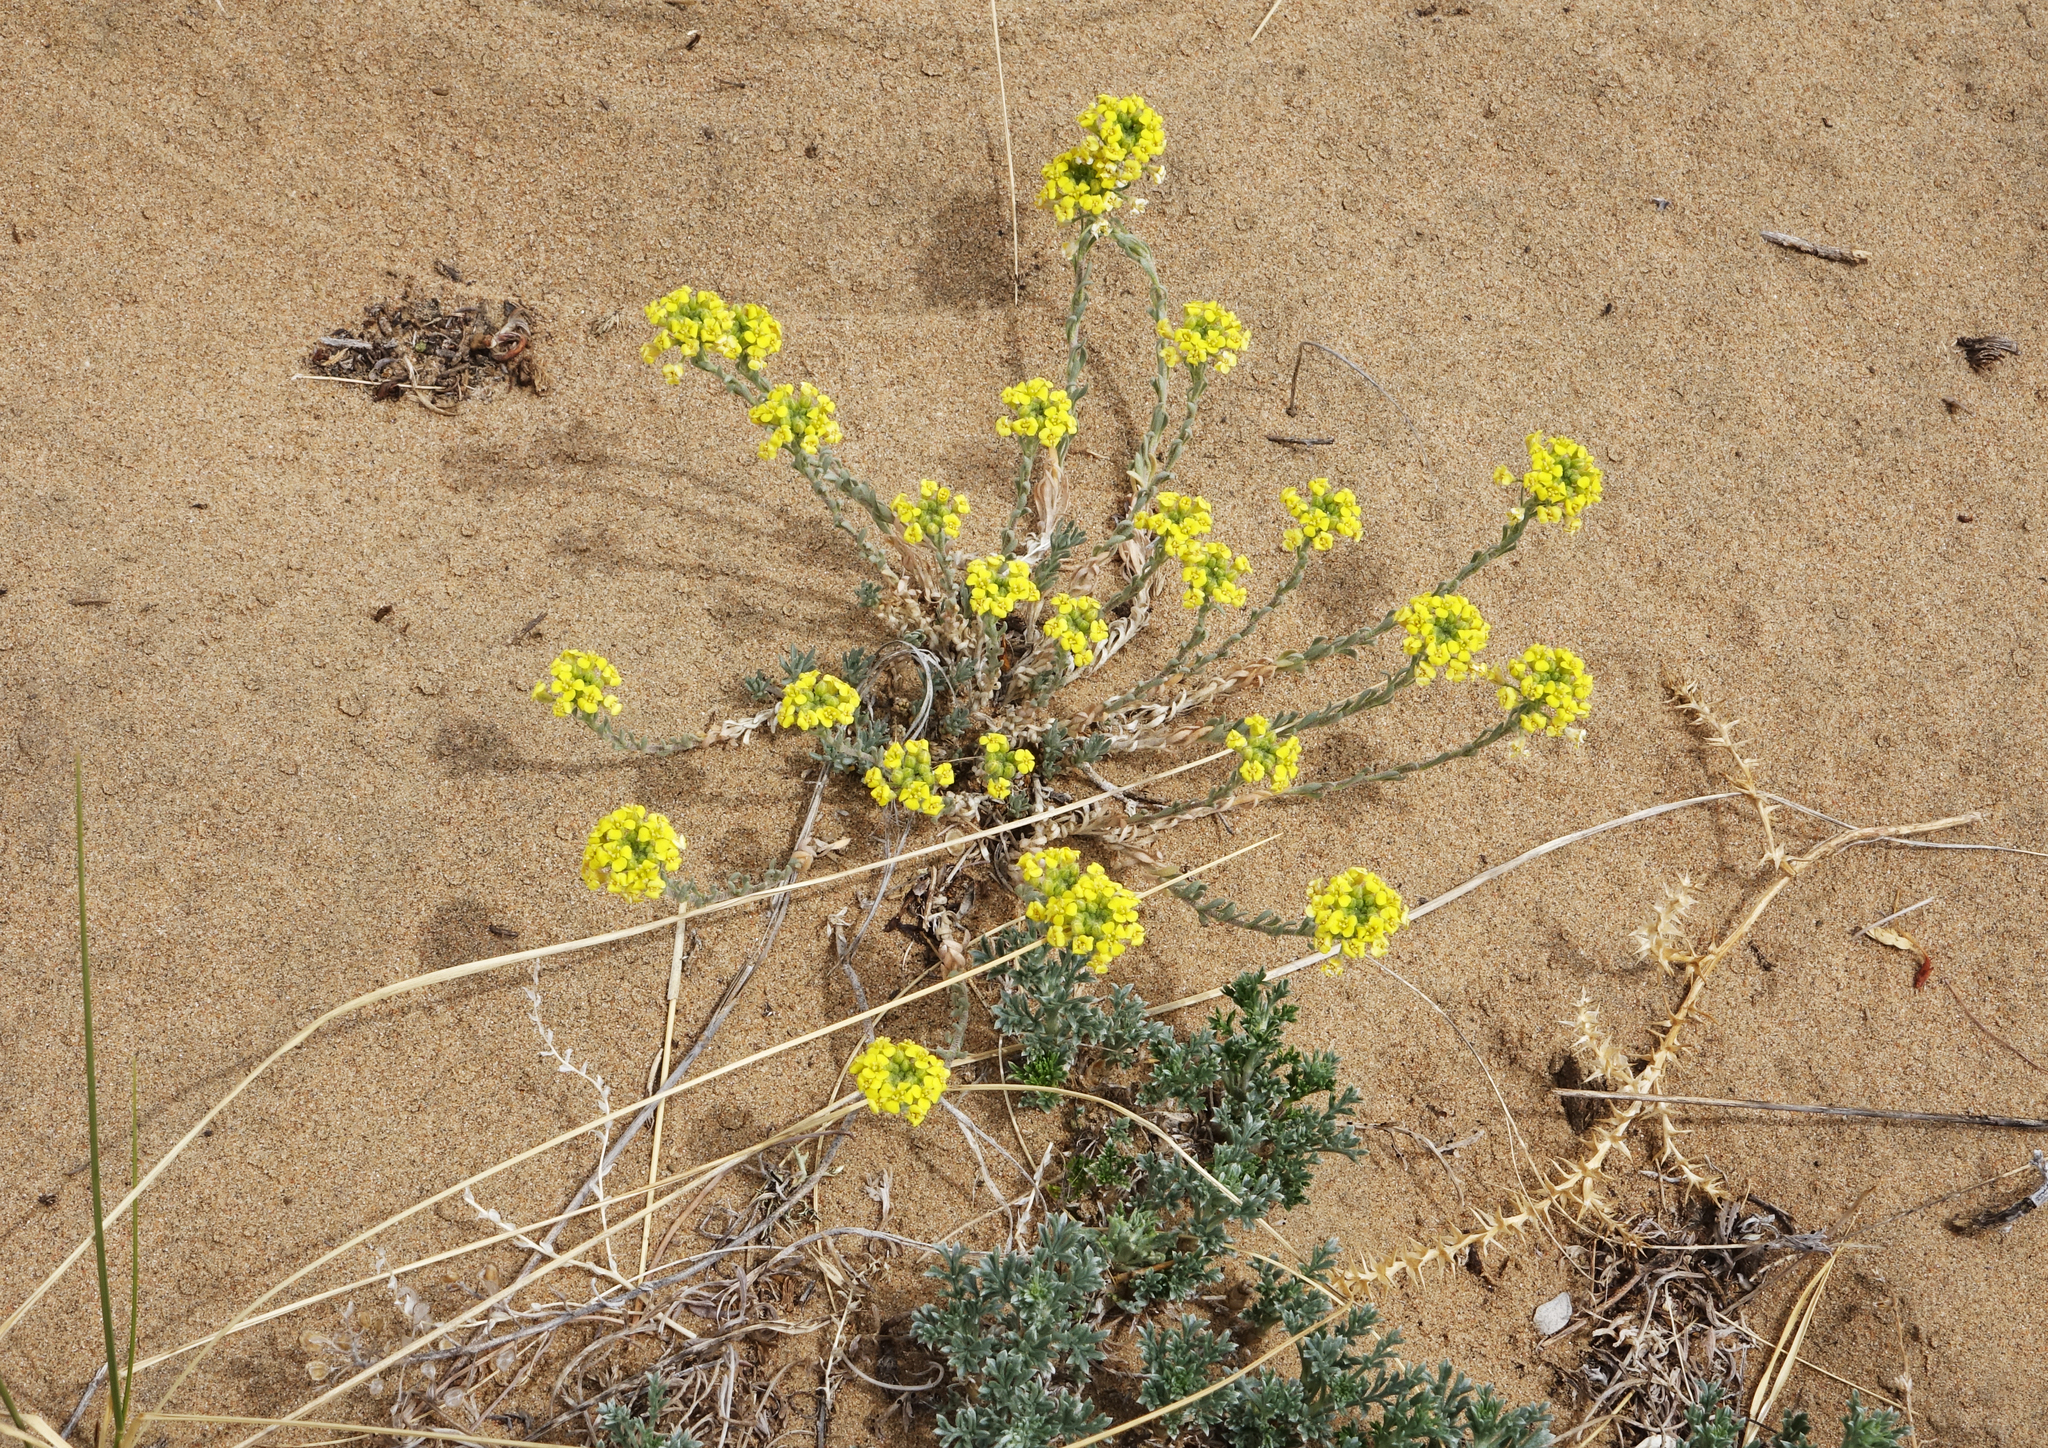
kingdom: Plantae
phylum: Tracheophyta
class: Magnoliopsida
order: Brassicales
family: Brassicaceae
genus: Alyssum
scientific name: Alyssum lenense
